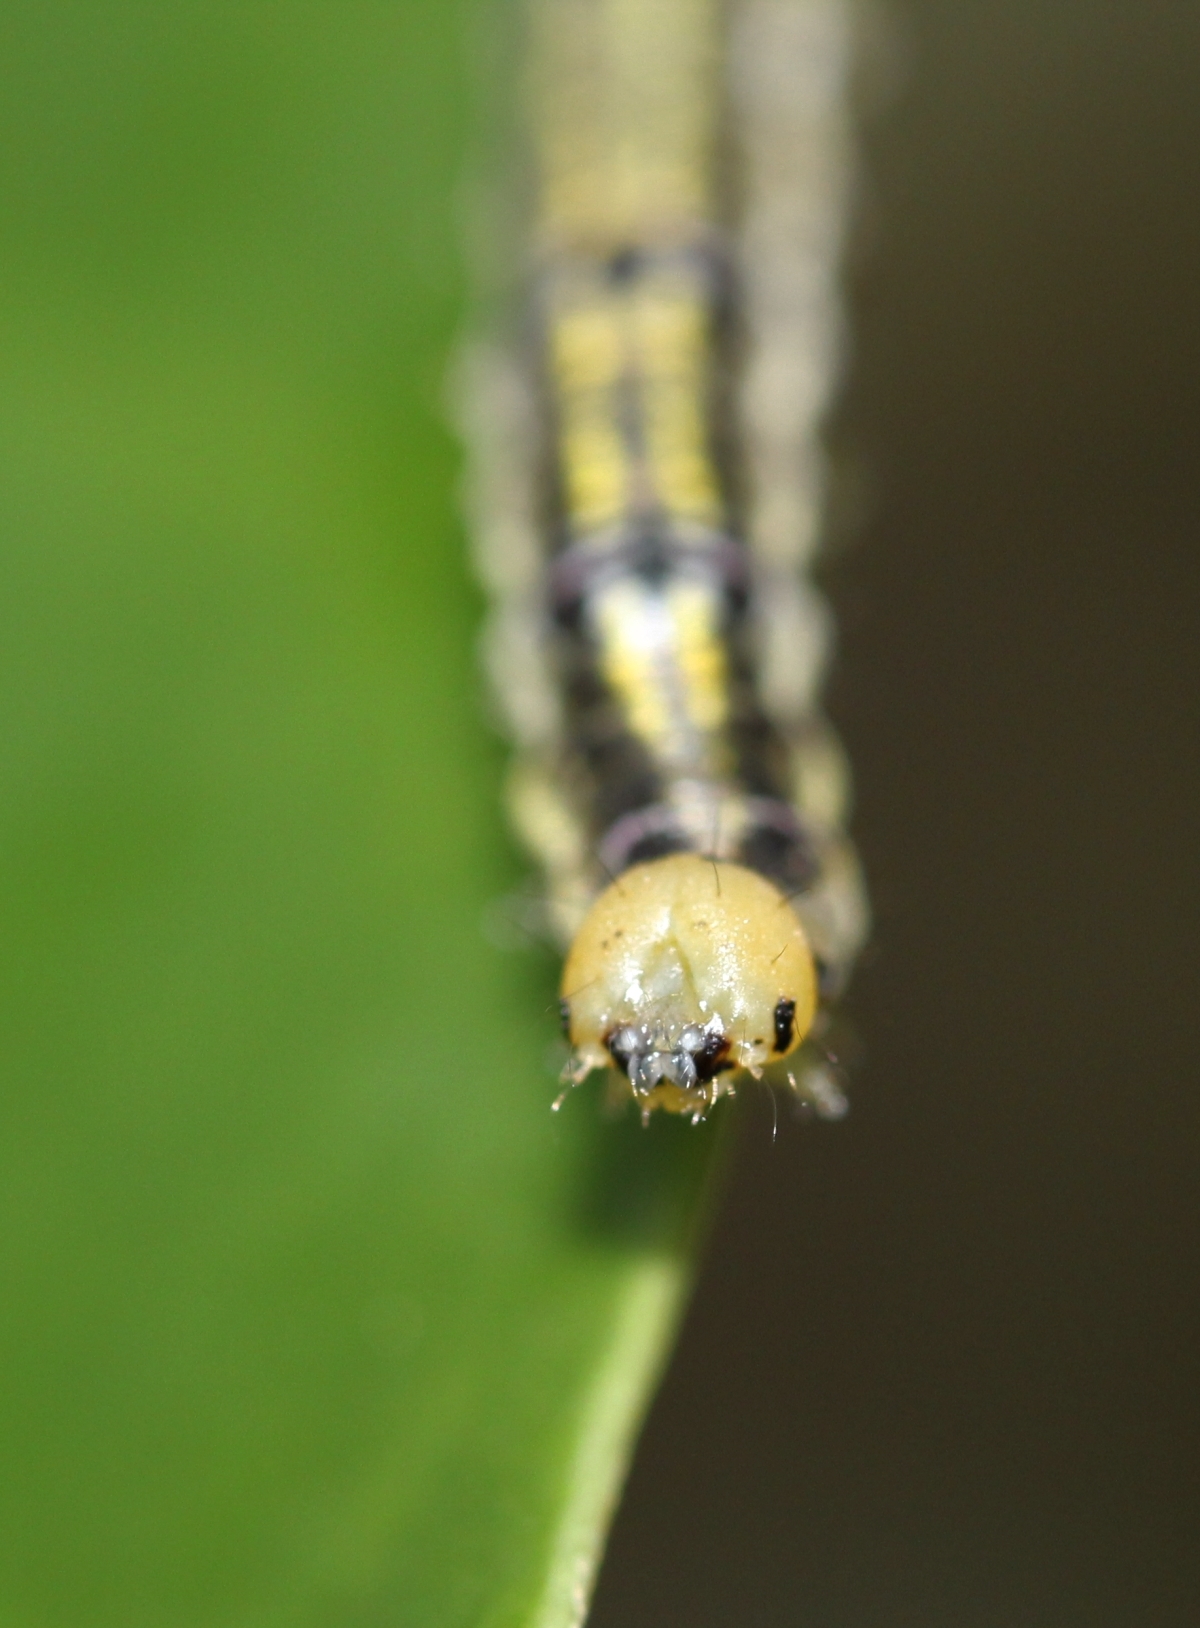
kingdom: Animalia
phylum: Arthropoda
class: Insecta
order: Lepidoptera
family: Notodontidae
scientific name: Notodontidae
